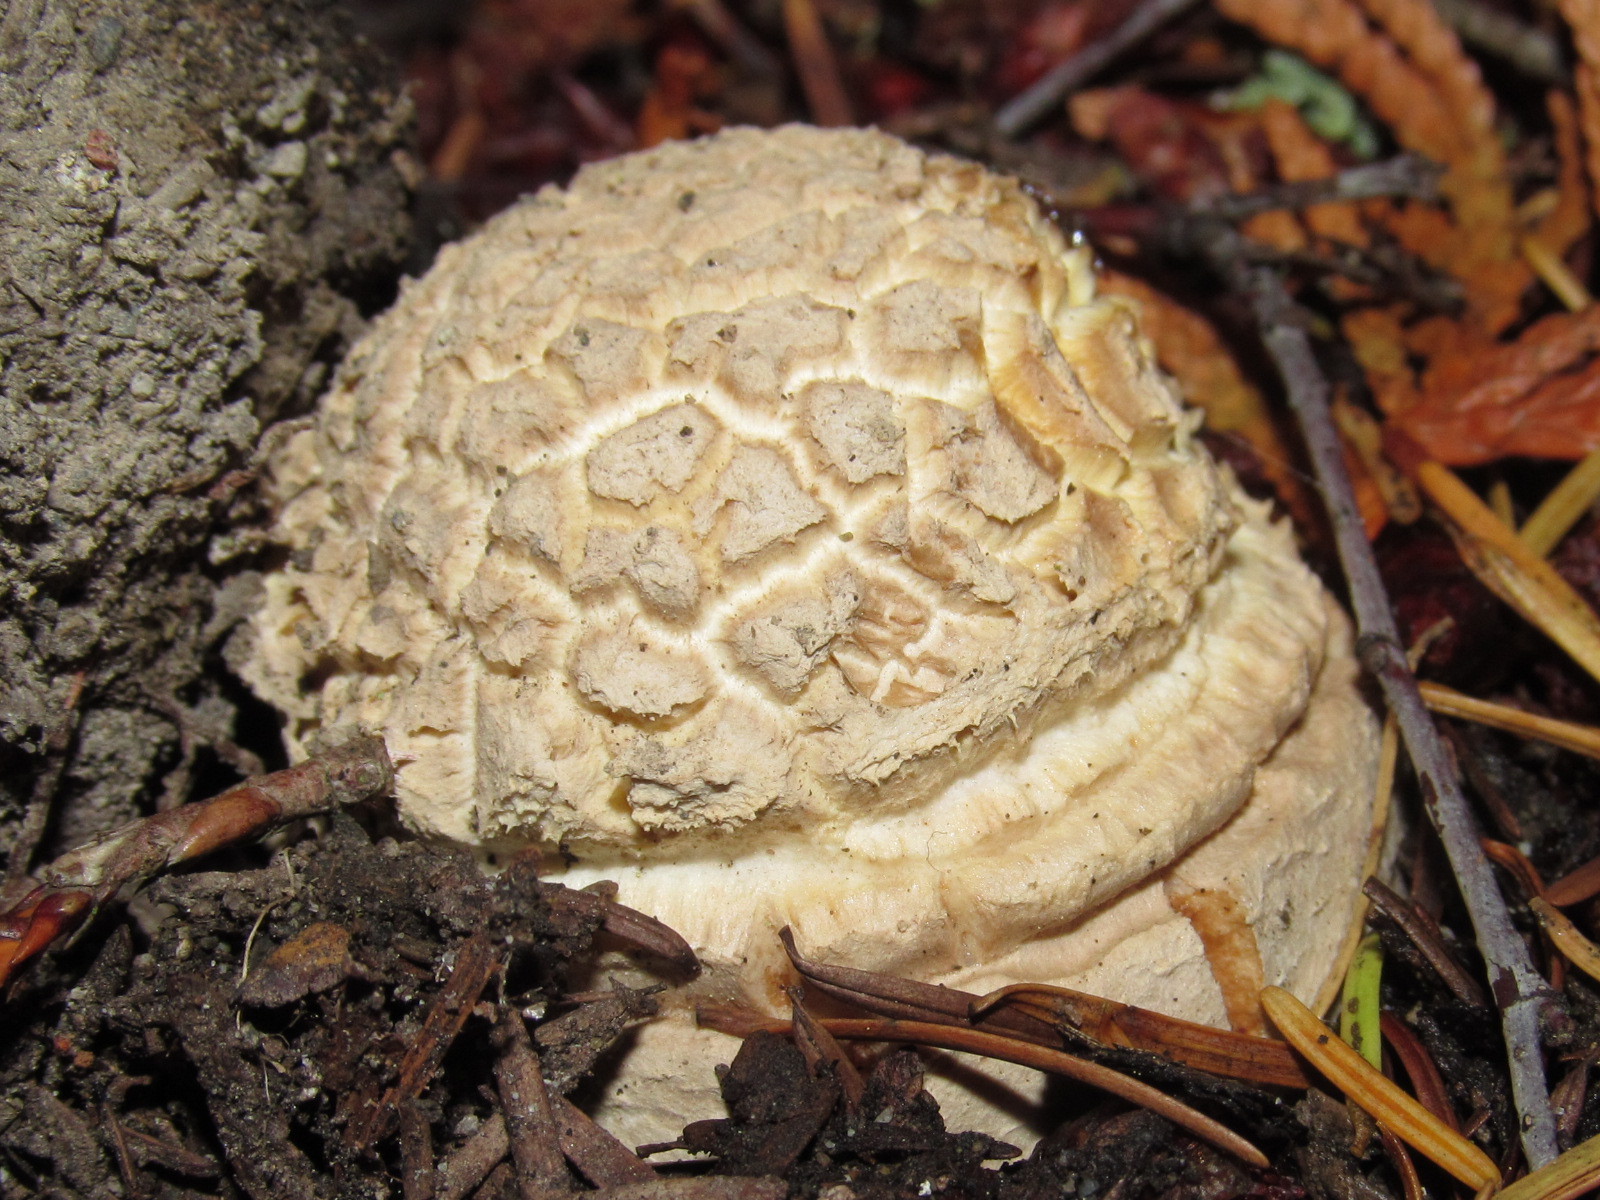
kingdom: Fungi
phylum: Basidiomycota
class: Agaricomycetes
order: Agaricales
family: Amanitaceae
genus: Amanita
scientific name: Amanita muscaria
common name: Fly agaric
